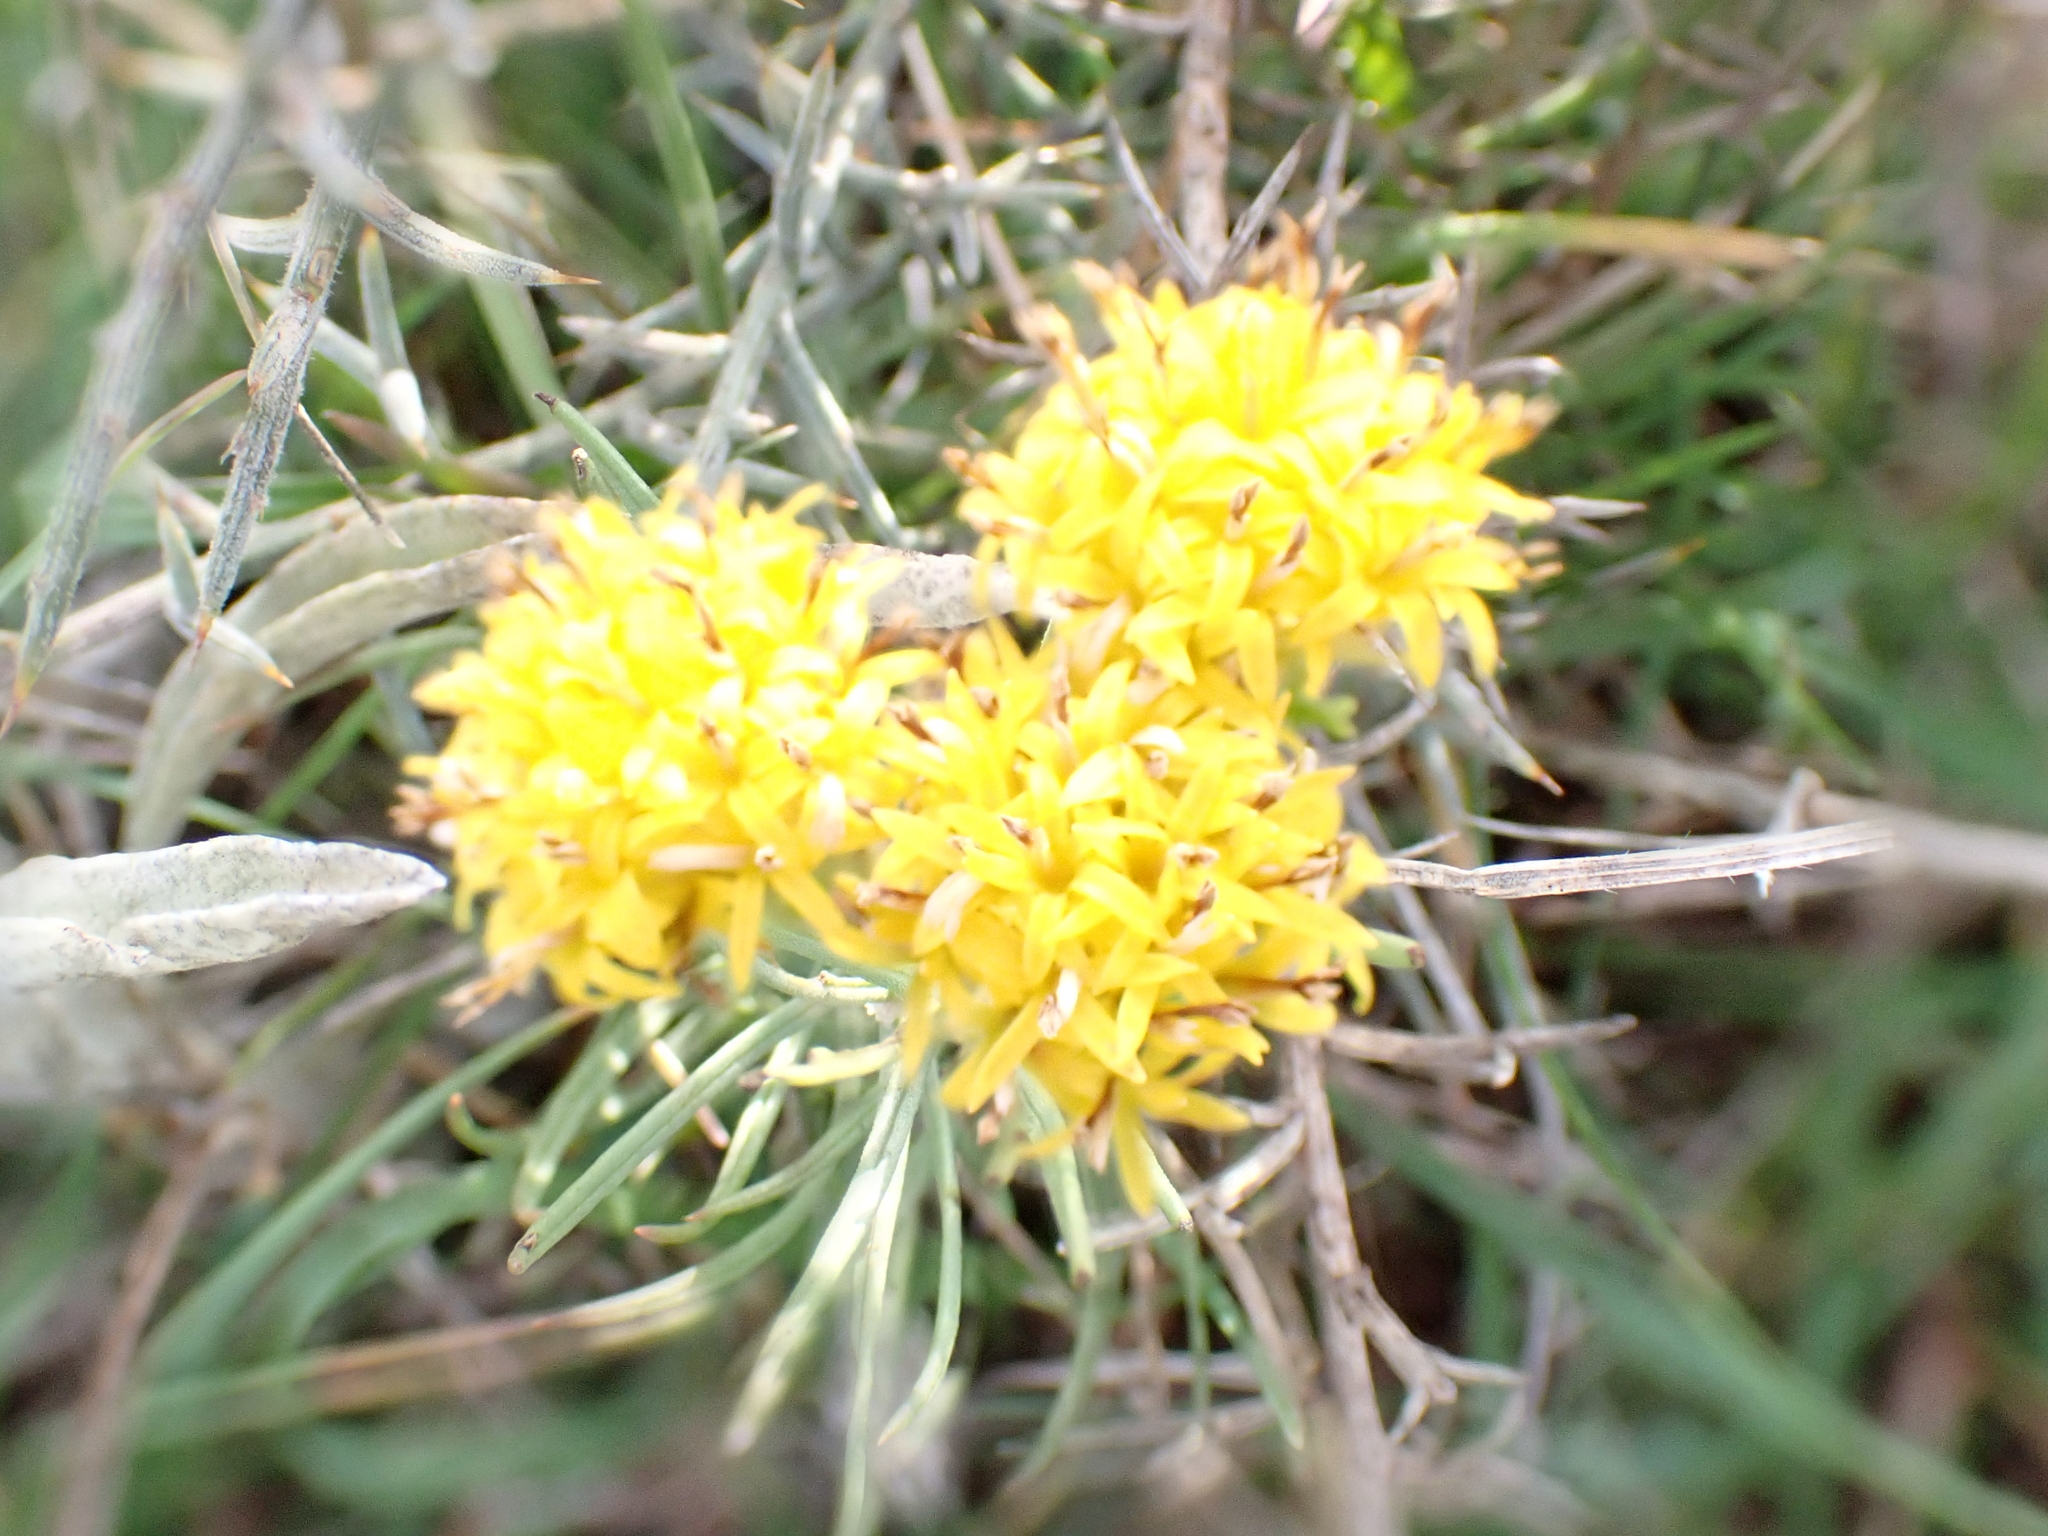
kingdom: Plantae
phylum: Tracheophyta
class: Magnoliopsida
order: Asterales
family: Asteraceae
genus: Galatella
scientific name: Galatella linosyris
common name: Goldilocks aster
